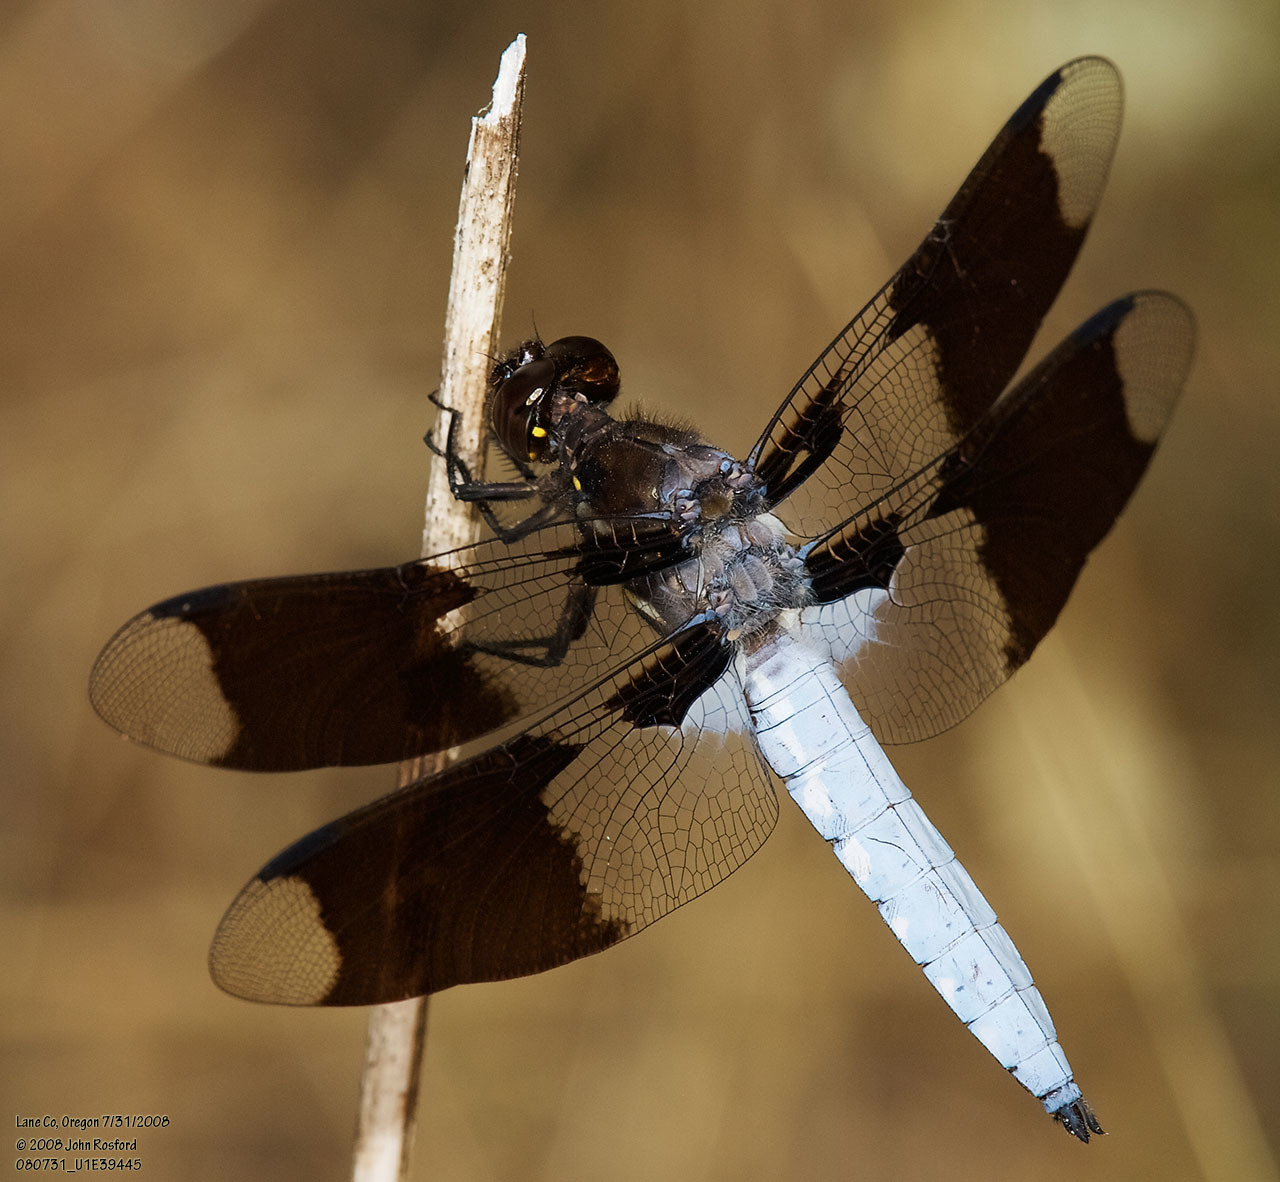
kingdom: Animalia
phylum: Arthropoda
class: Insecta
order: Odonata
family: Libellulidae
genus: Plathemis
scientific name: Plathemis lydia
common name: Common whitetail
